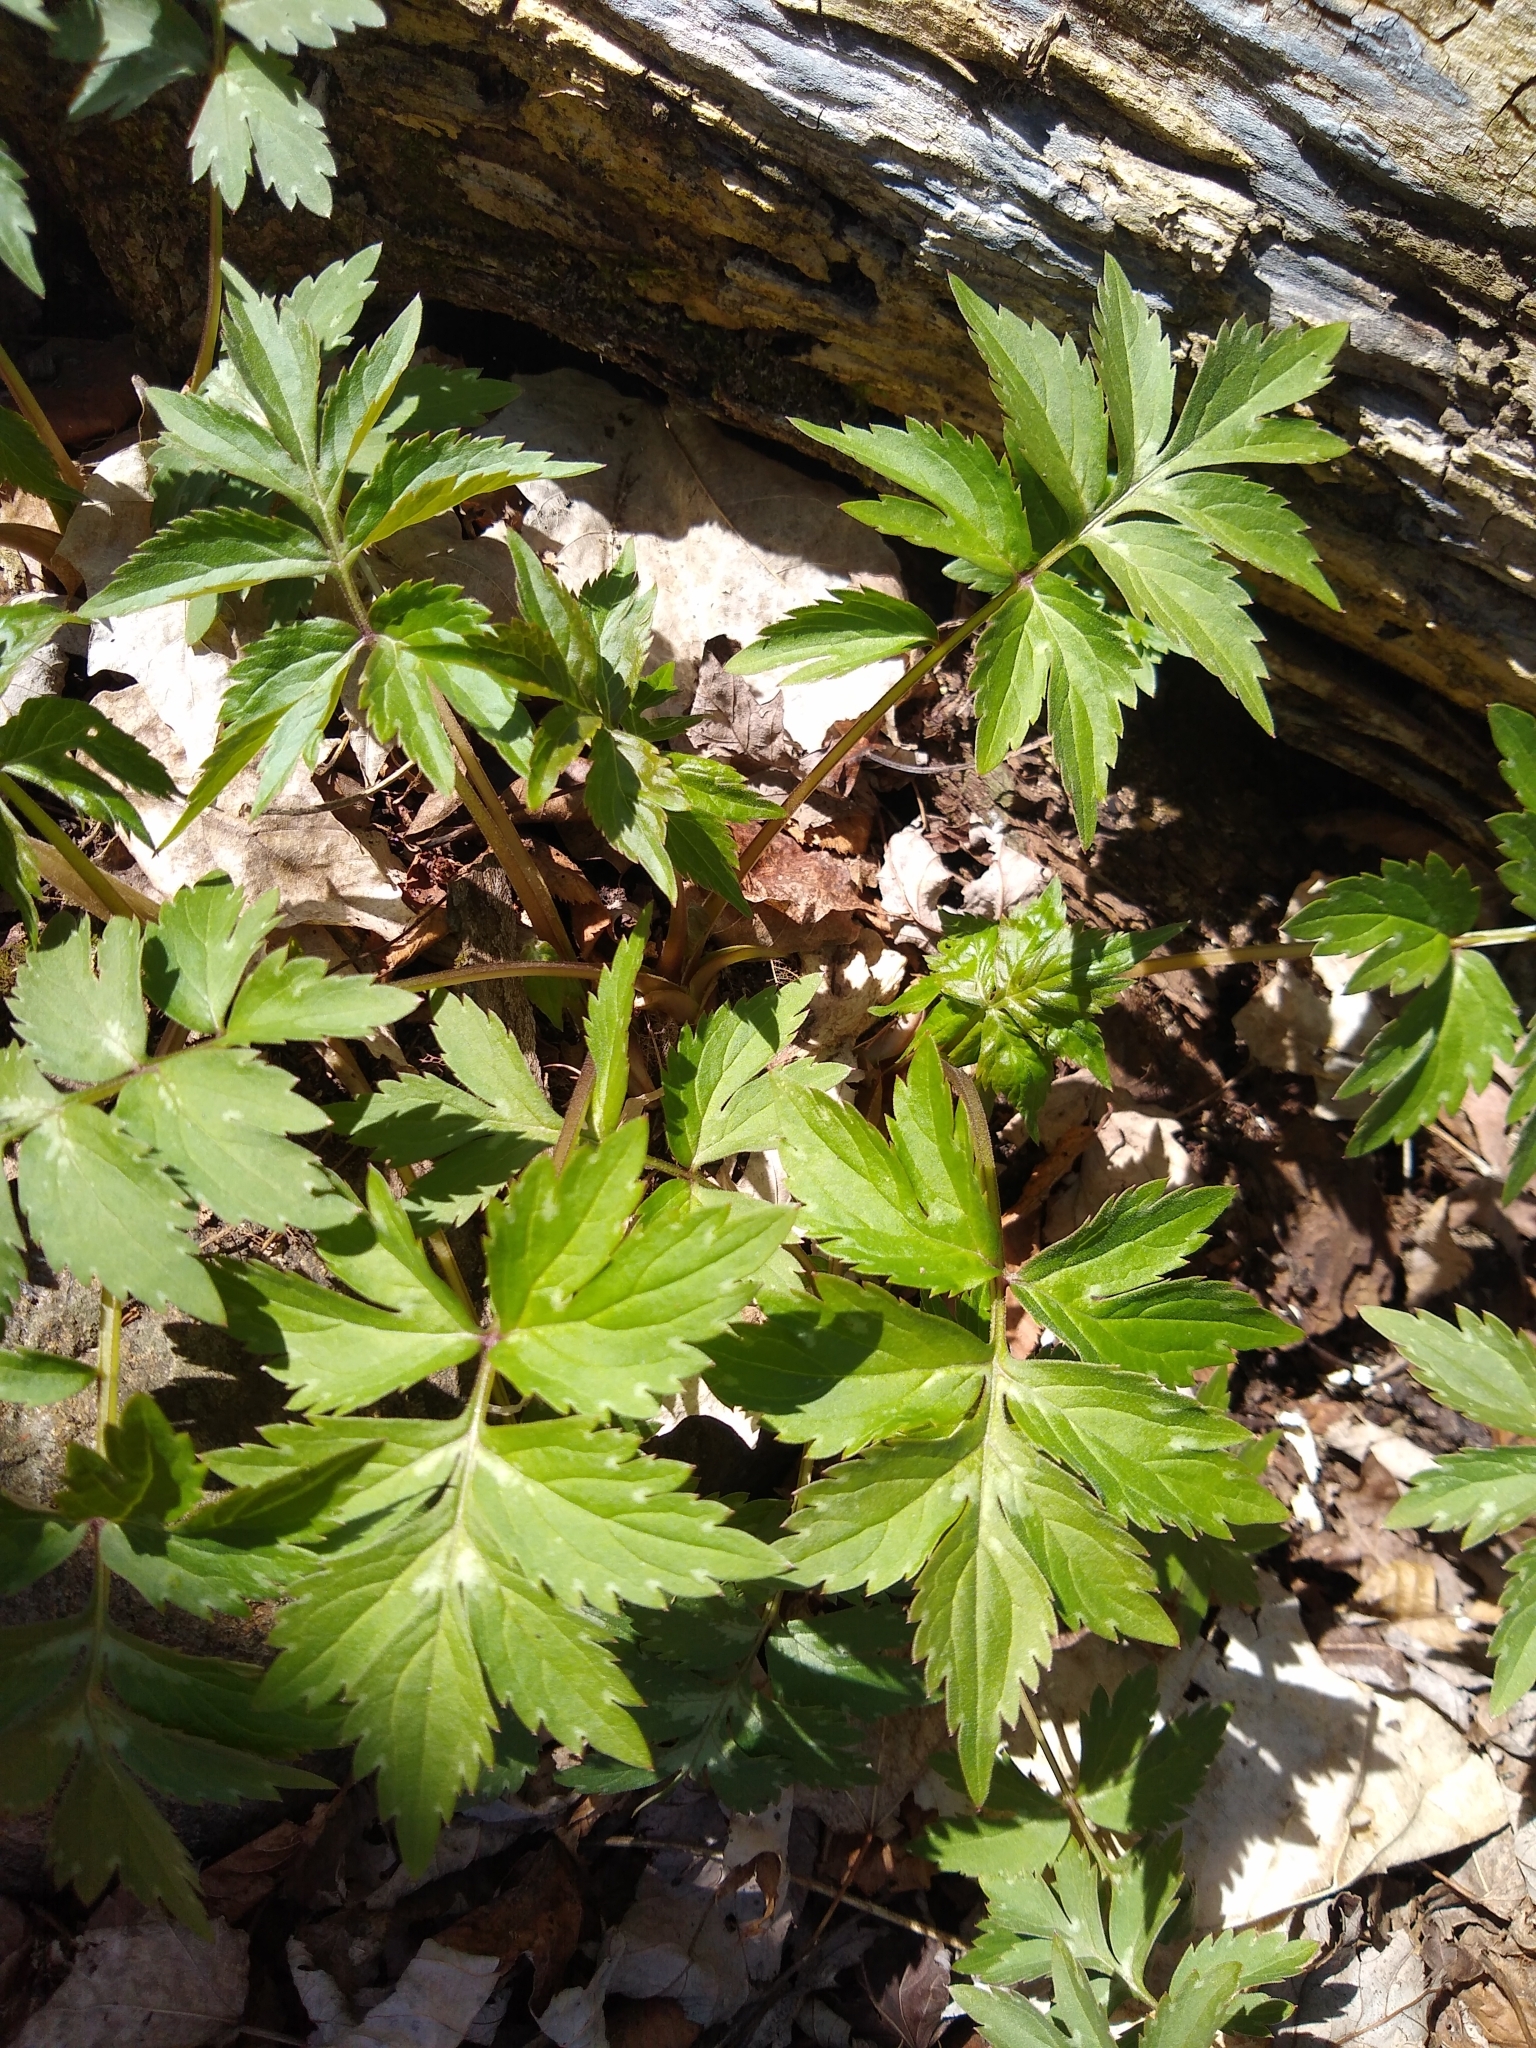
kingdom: Plantae
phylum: Tracheophyta
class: Magnoliopsida
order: Boraginales
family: Hydrophyllaceae
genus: Hydrophyllum
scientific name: Hydrophyllum virginianum
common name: Virginia waterleaf
